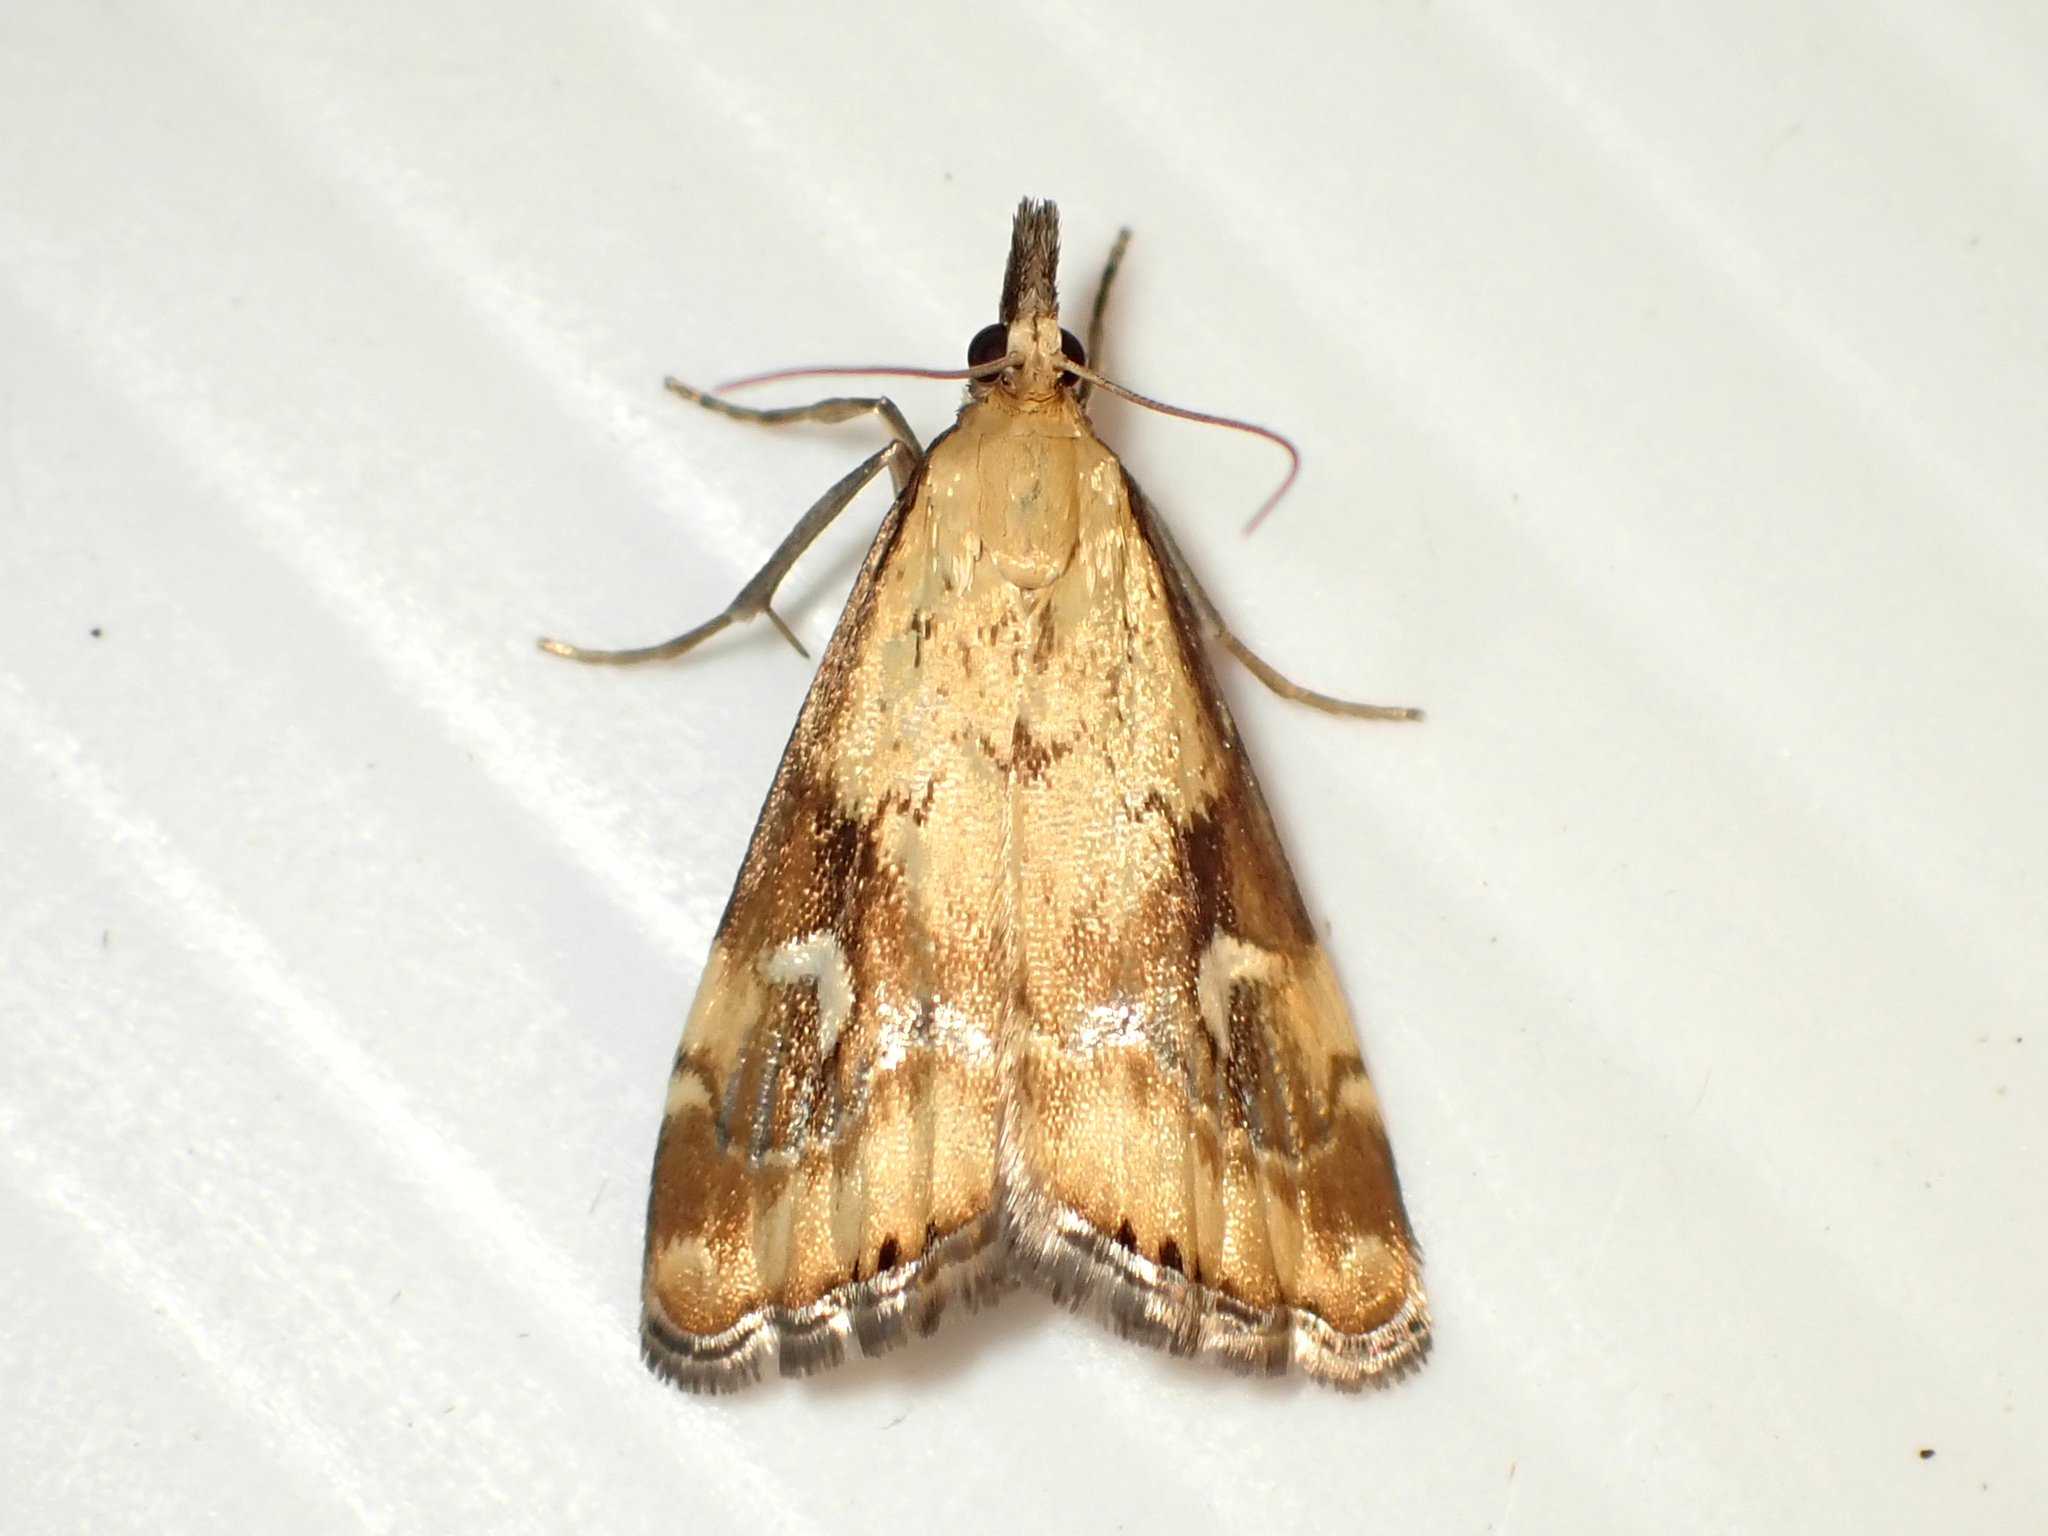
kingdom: Animalia
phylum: Arthropoda
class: Insecta
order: Lepidoptera
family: Crambidae
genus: Glaucocharis
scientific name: Glaucocharis lepidella
